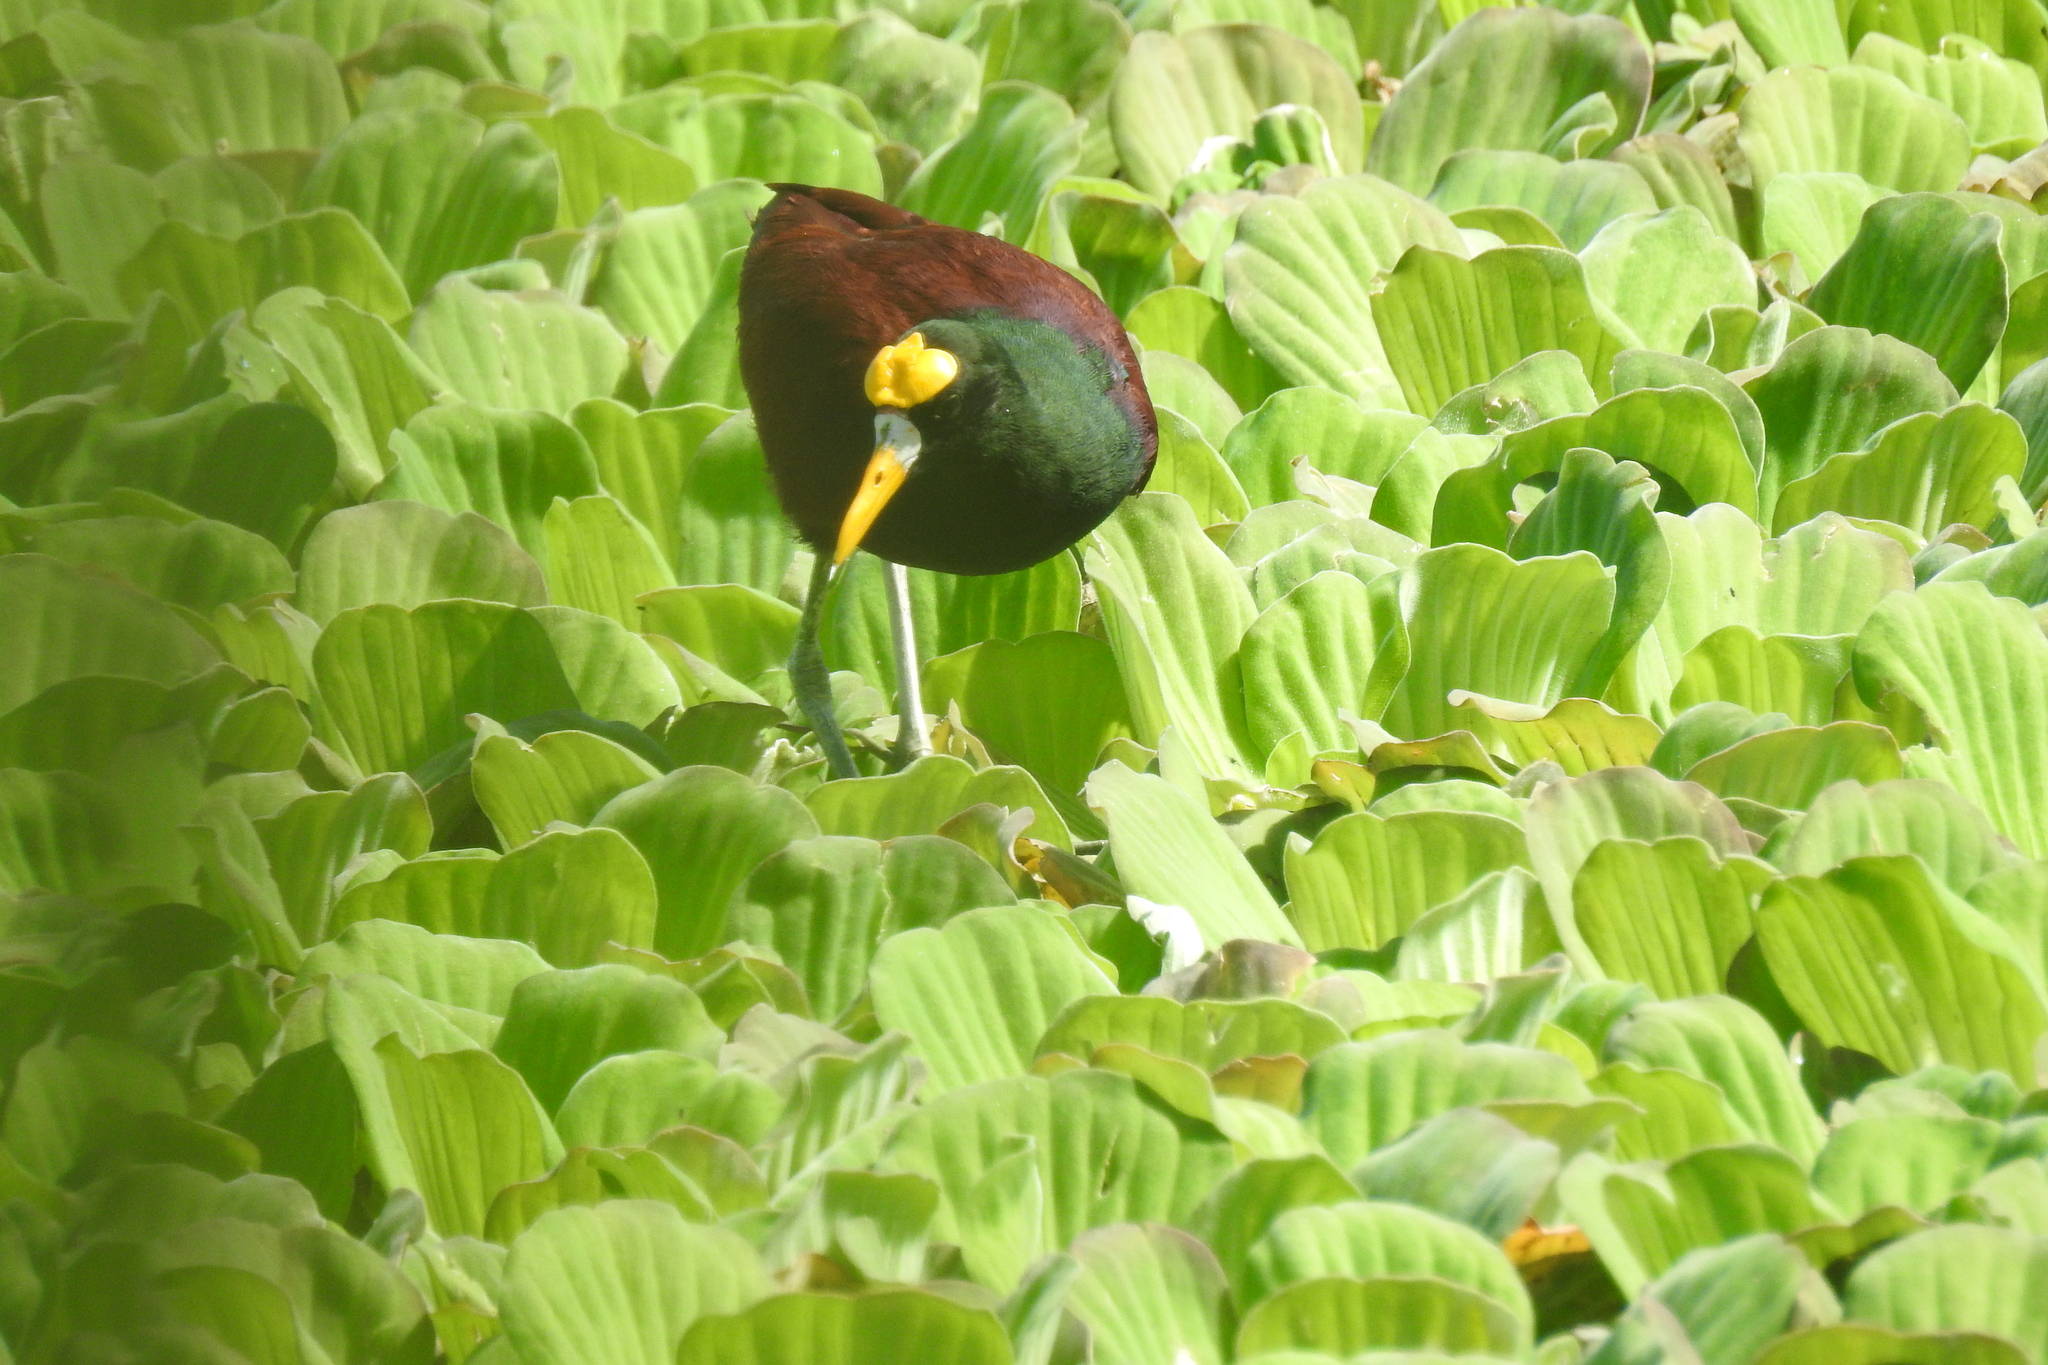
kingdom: Plantae
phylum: Tracheophyta
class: Liliopsida
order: Alismatales
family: Araceae
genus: Pistia
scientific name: Pistia stratiotes
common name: Water lettuce
